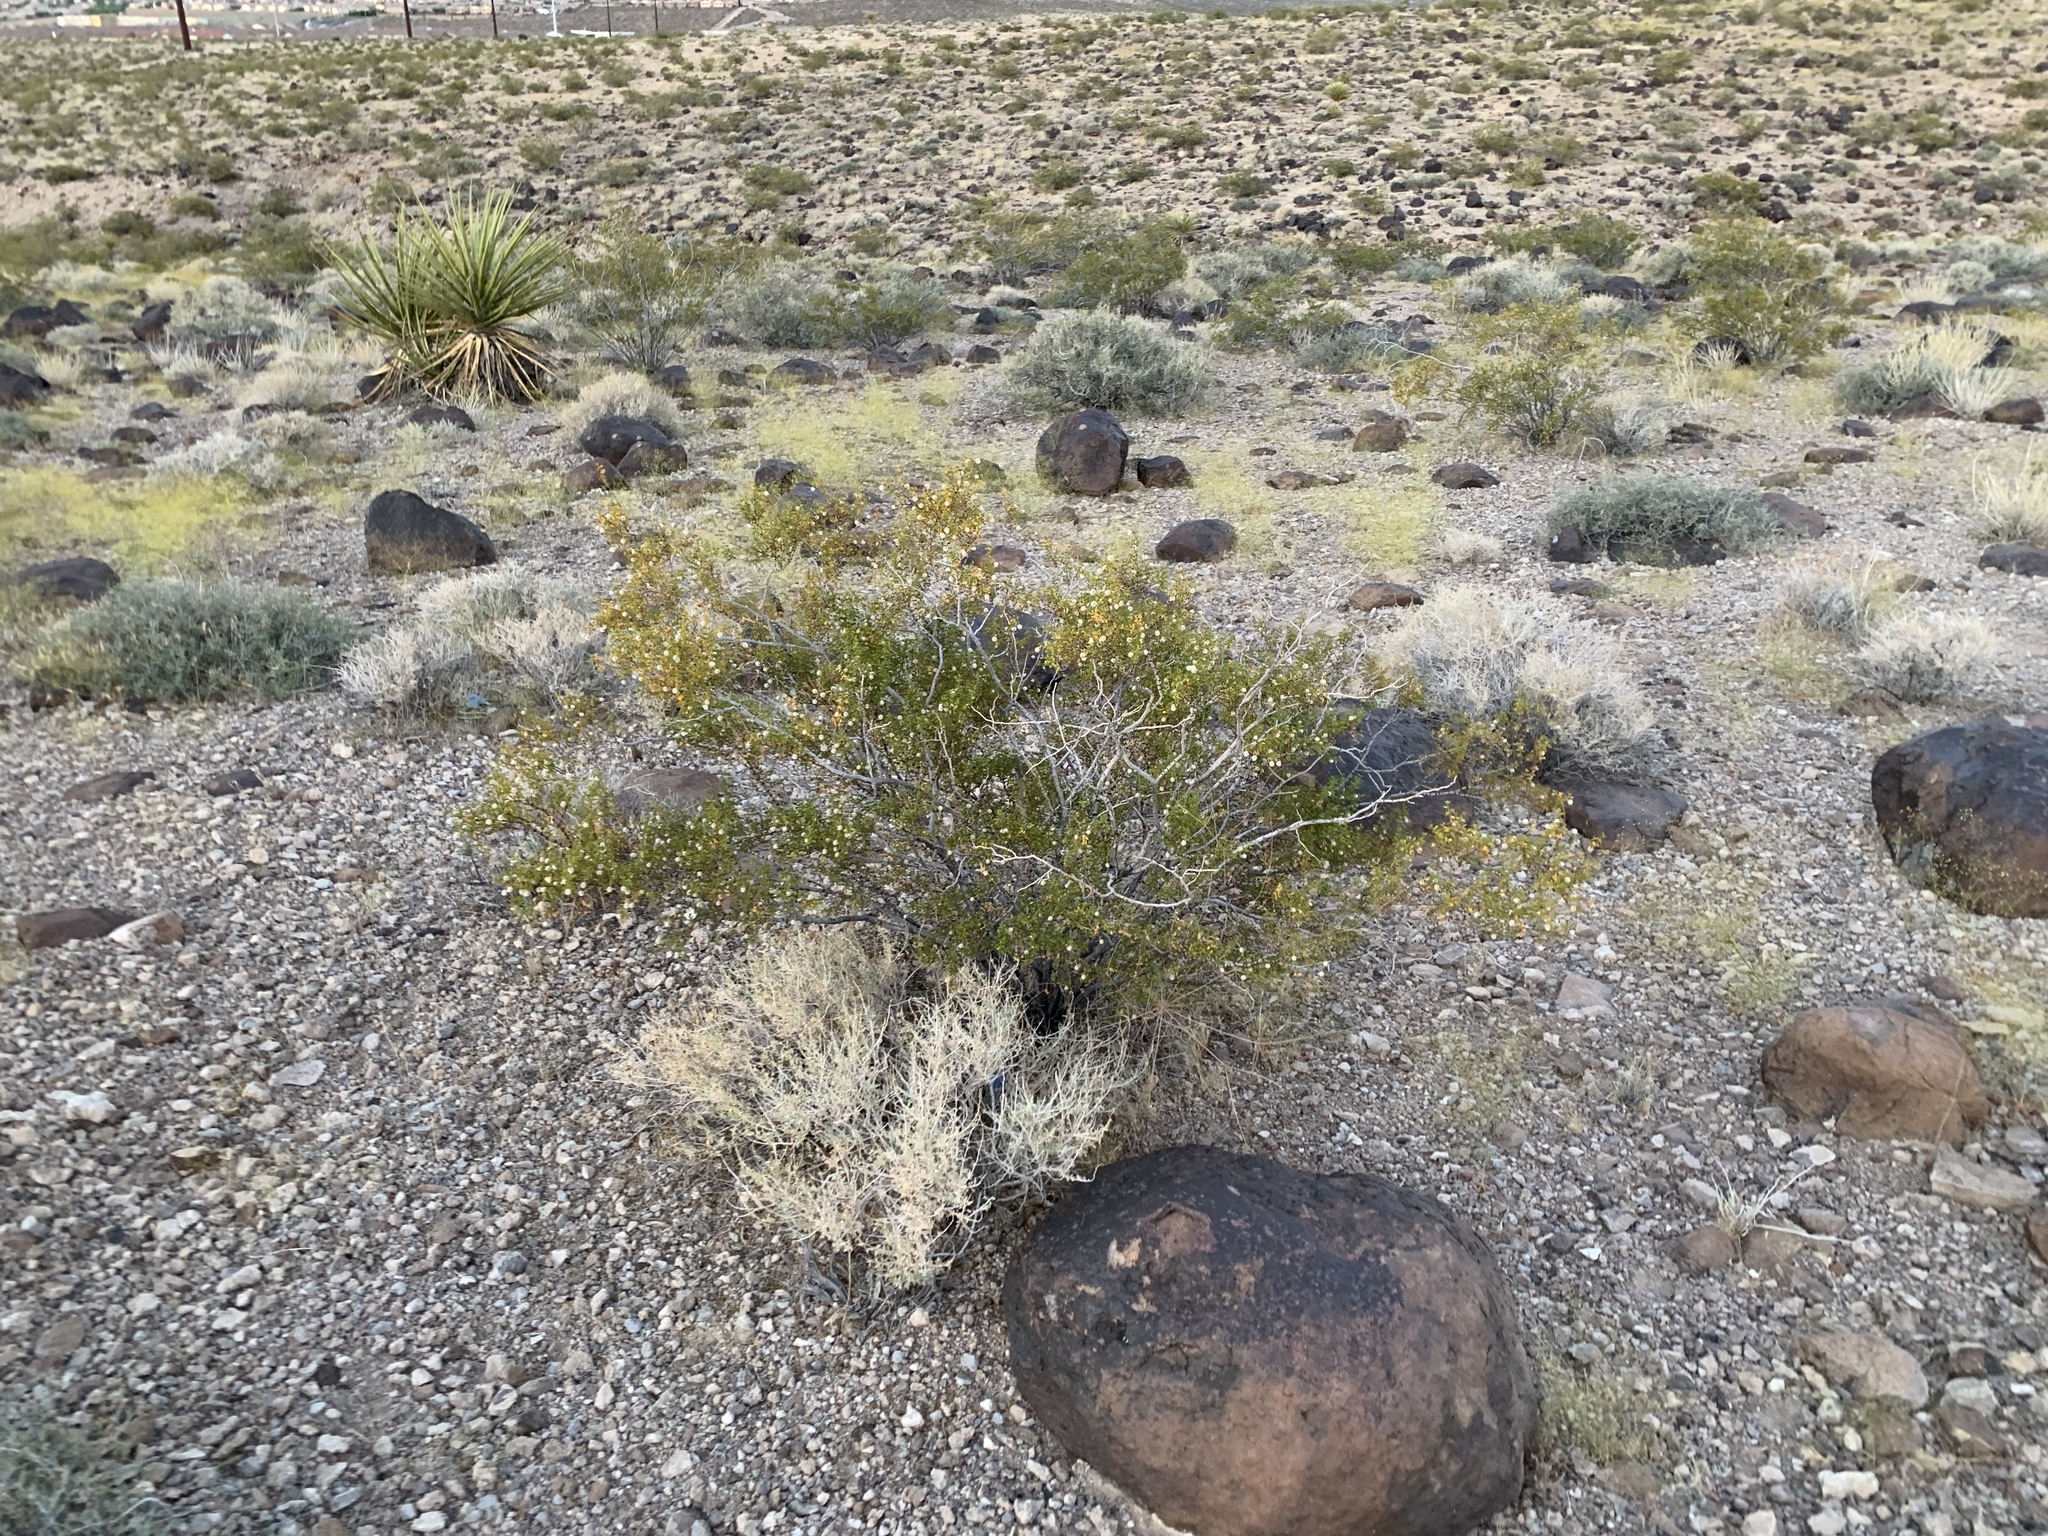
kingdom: Plantae
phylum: Tracheophyta
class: Magnoliopsida
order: Zygophyllales
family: Zygophyllaceae
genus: Larrea
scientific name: Larrea tridentata
